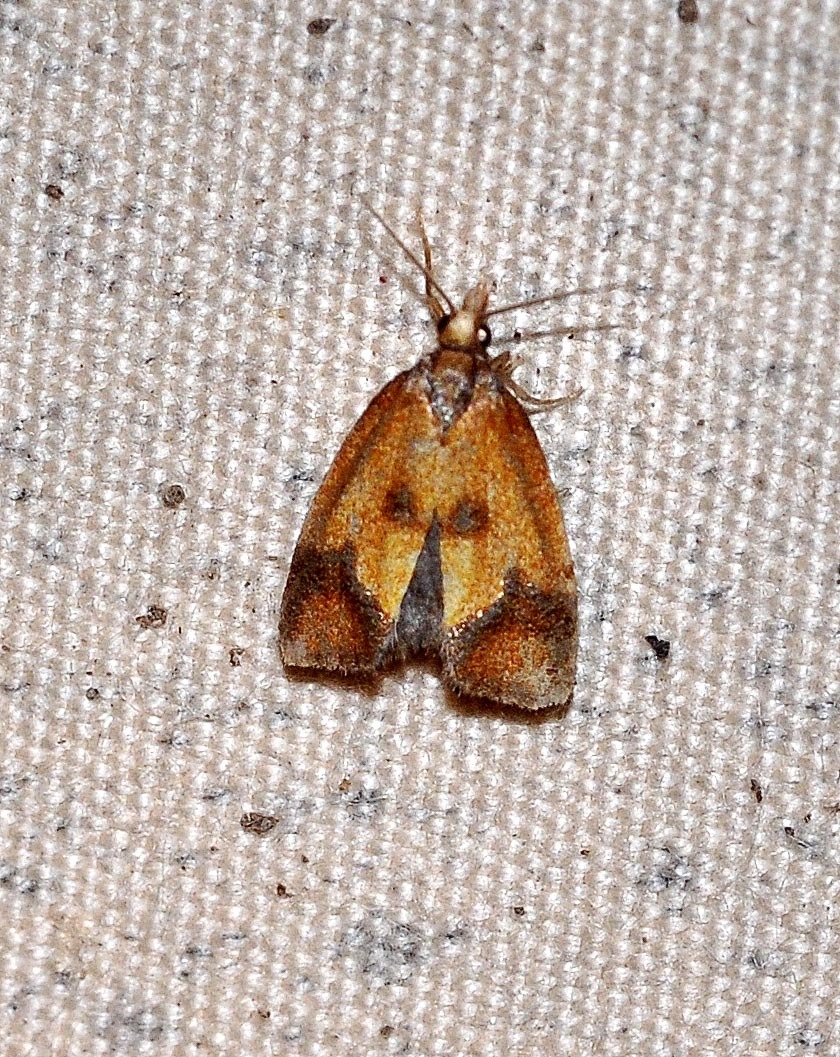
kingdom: Animalia
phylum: Arthropoda
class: Insecta
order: Lepidoptera
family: Tortricidae
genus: Agapeta
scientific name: Agapeta zoegana
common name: Sulfur knapweed root moth
